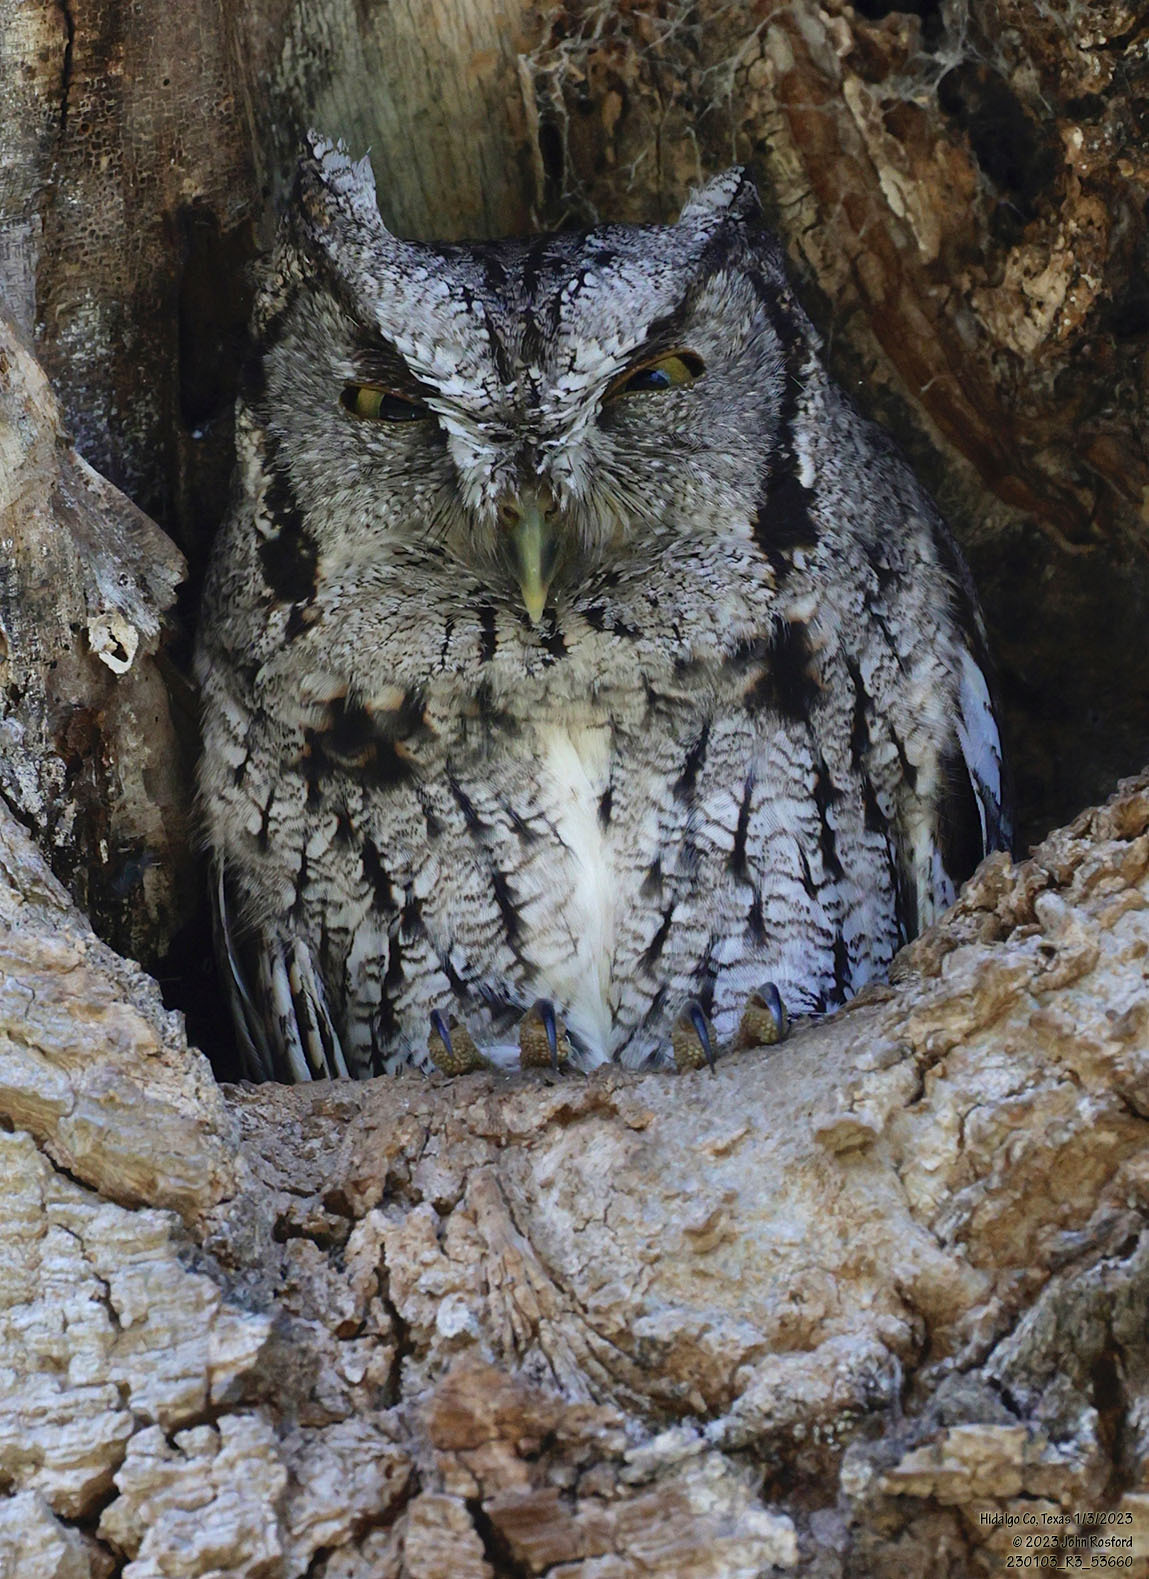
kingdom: Animalia
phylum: Chordata
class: Aves
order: Strigiformes
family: Strigidae
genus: Megascops
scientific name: Megascops asio
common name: Eastern screech-owl
